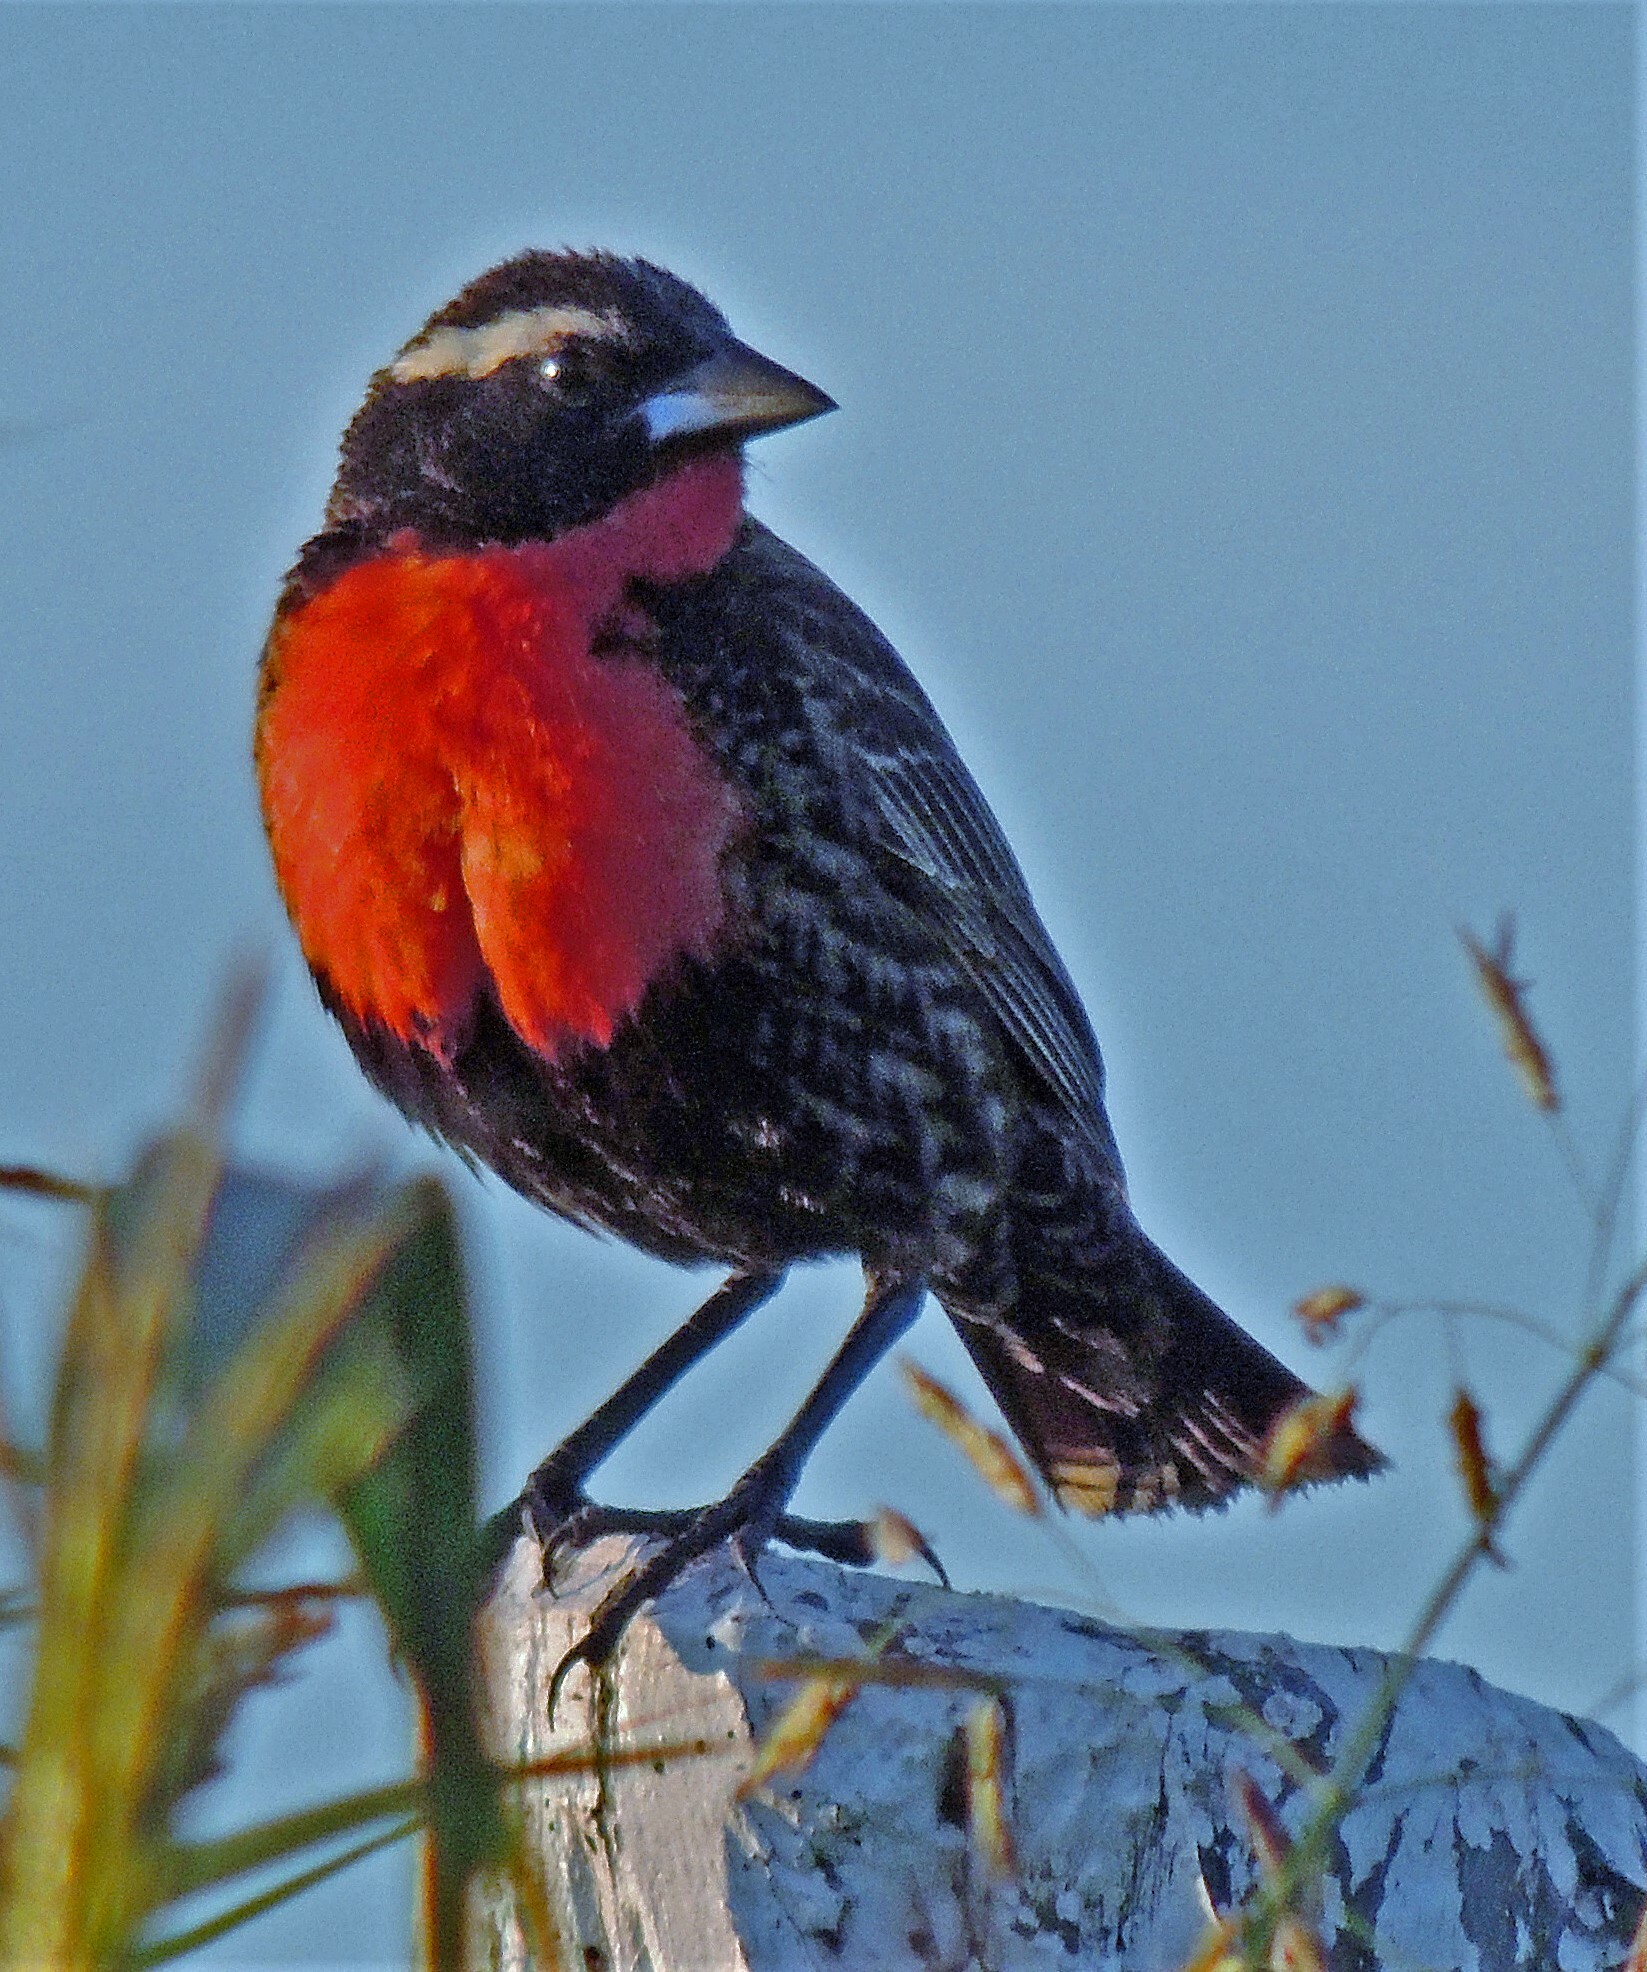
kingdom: Animalia
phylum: Chordata
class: Aves
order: Passeriformes
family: Icteridae
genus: Sturnella
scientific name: Sturnella superciliaris
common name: White-browed blackbird
